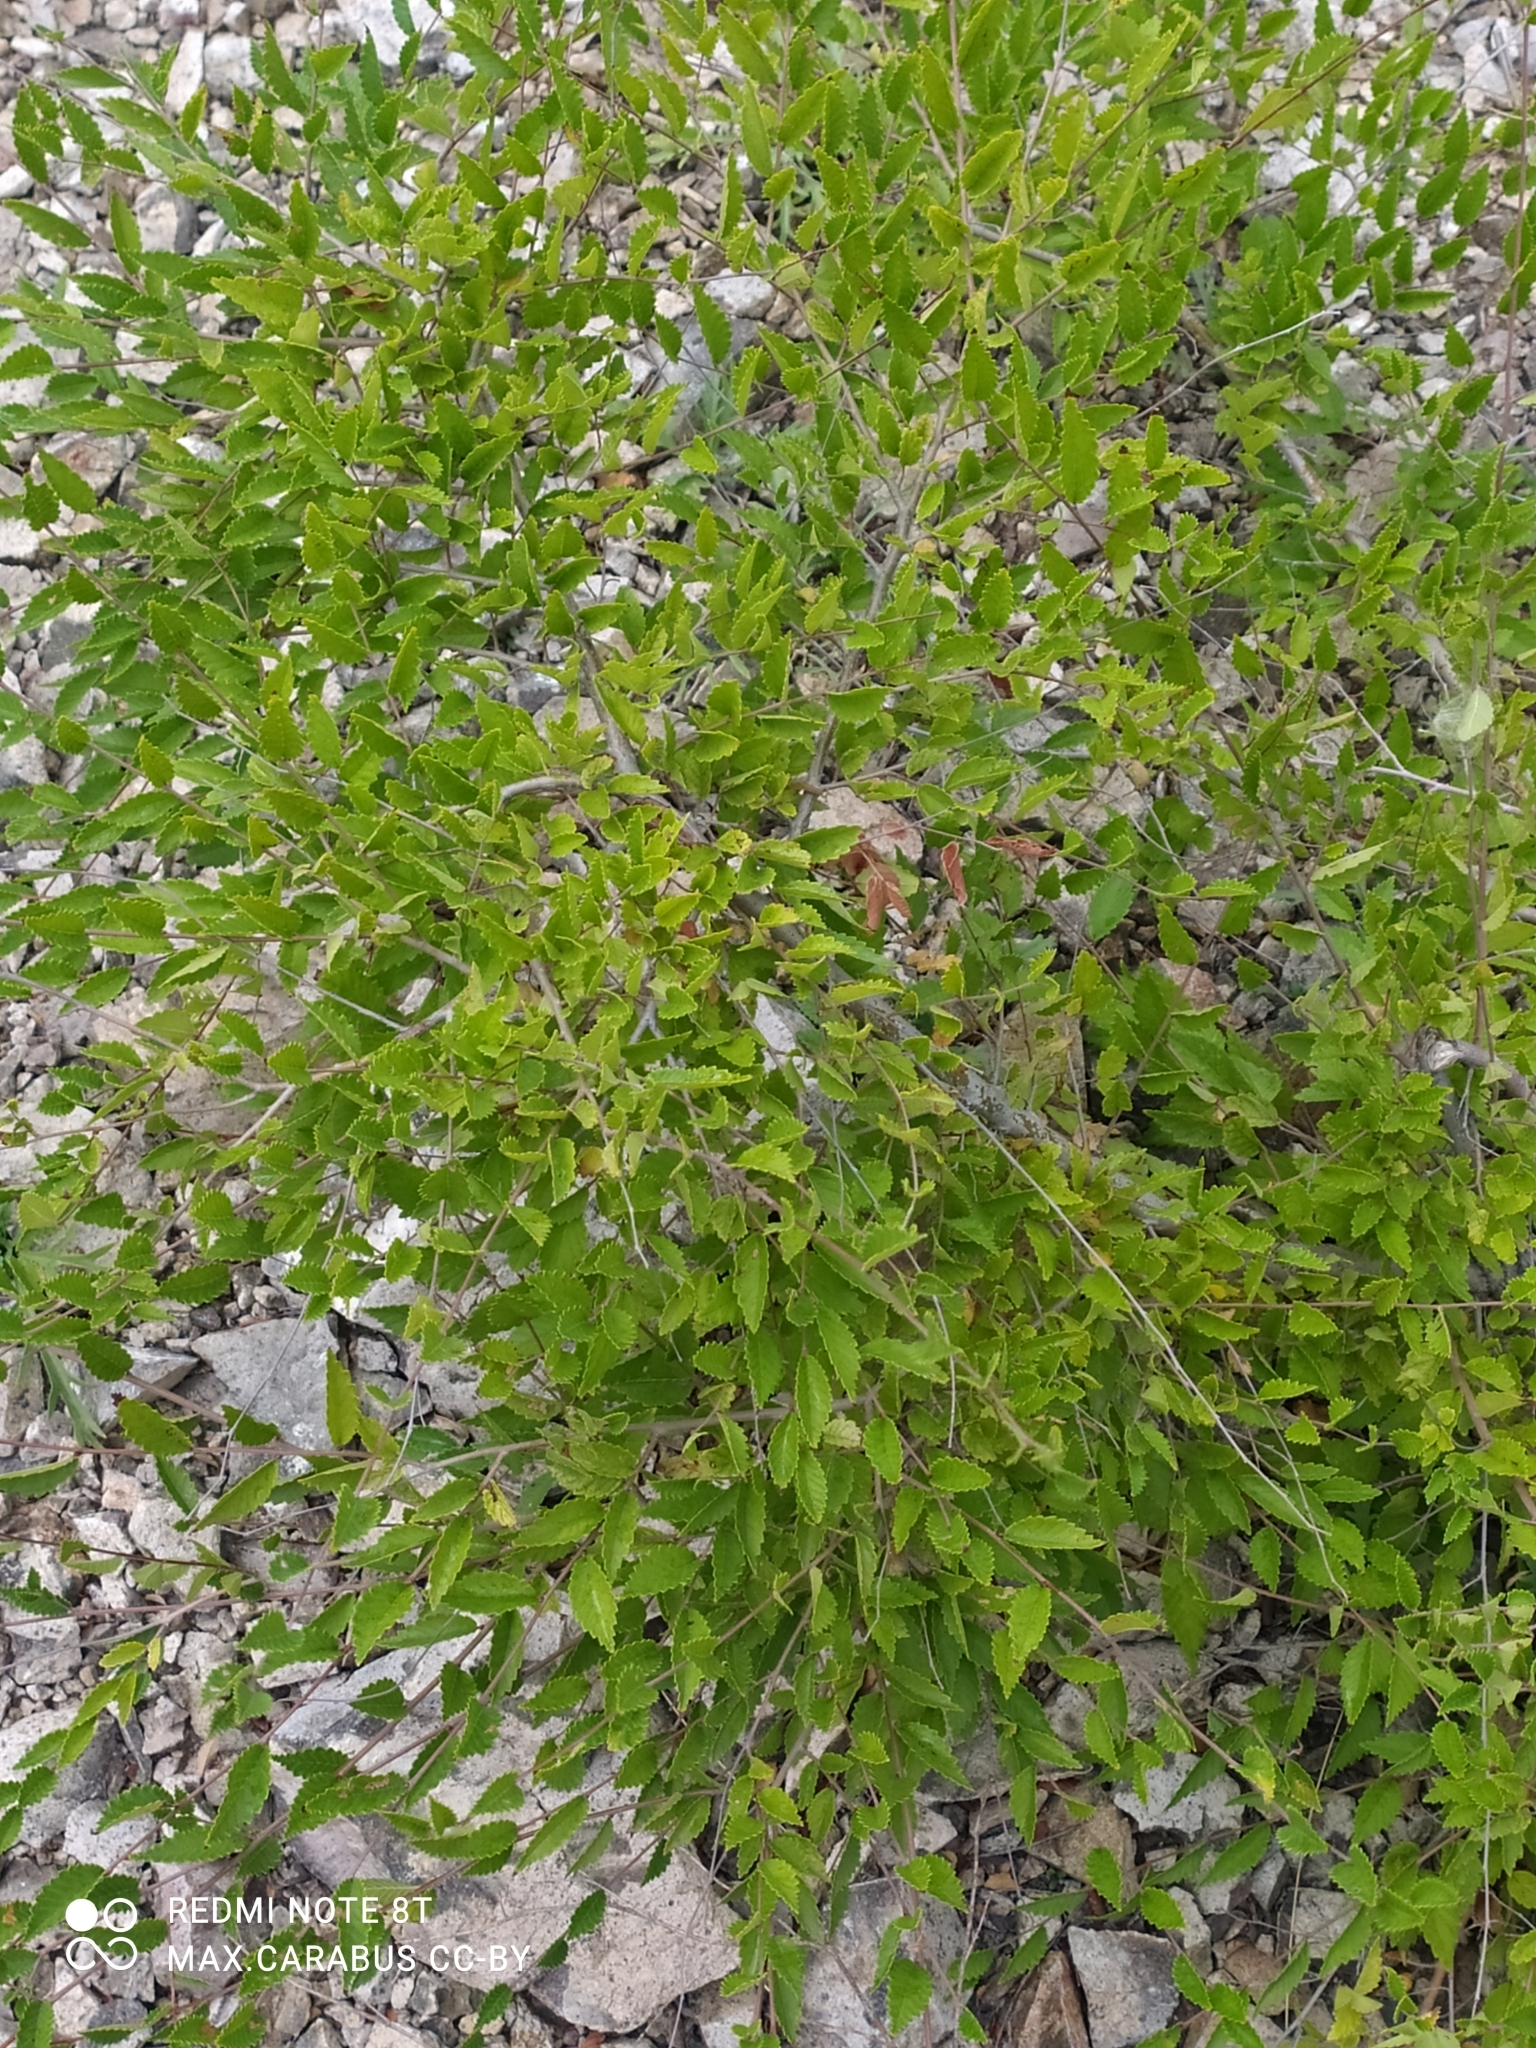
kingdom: Plantae
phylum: Tracheophyta
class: Magnoliopsida
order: Rosales
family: Ulmaceae
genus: Ulmus
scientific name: Ulmus pumila
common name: Siberian elm
